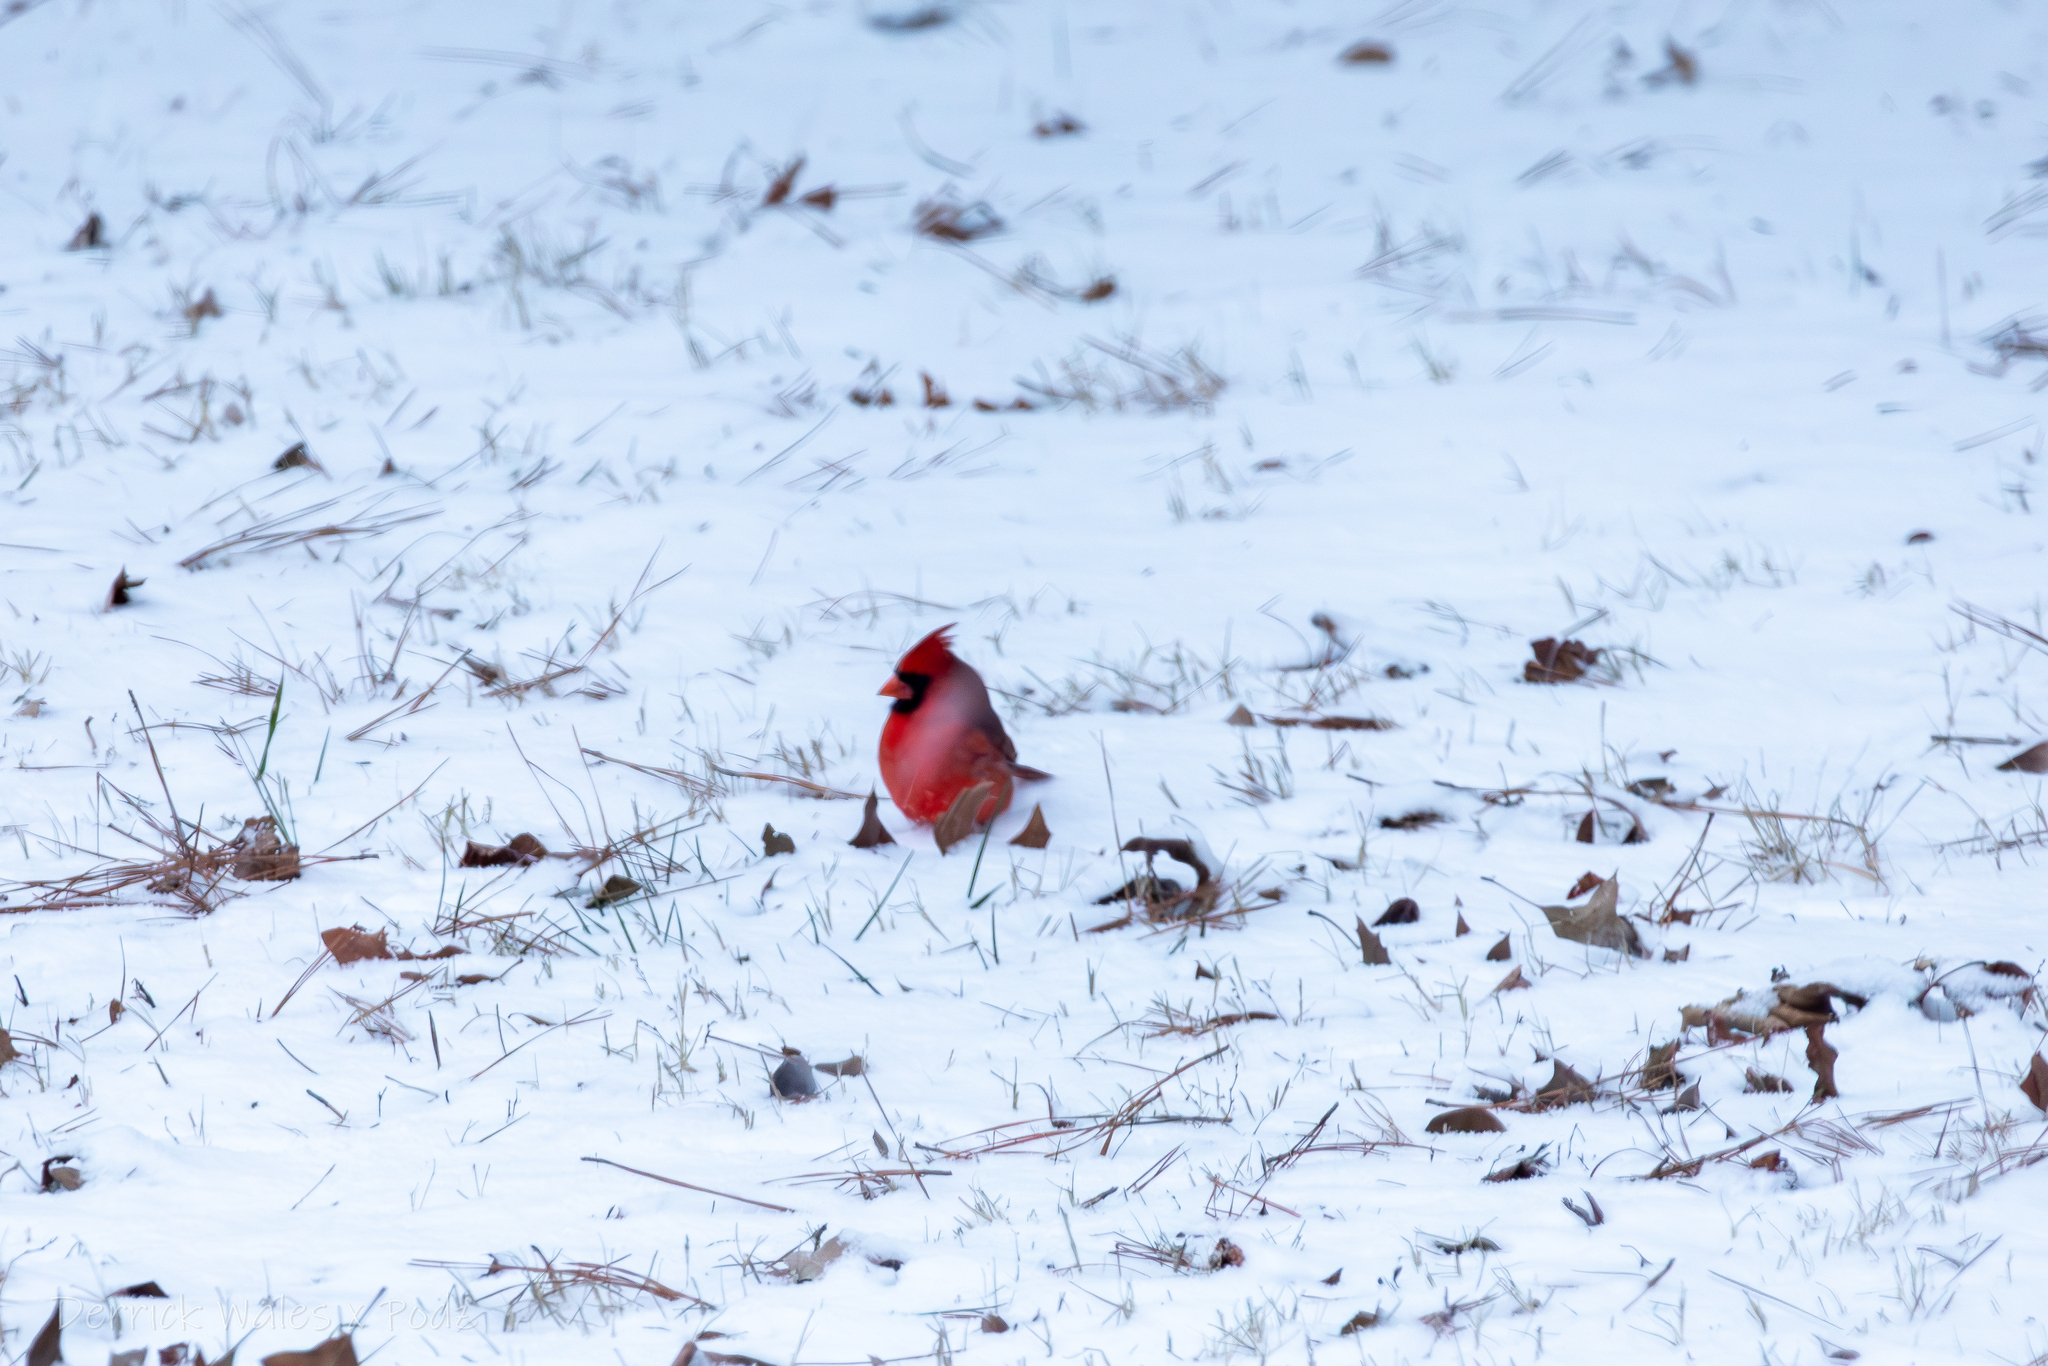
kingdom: Animalia
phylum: Chordata
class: Aves
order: Passeriformes
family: Cardinalidae
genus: Cardinalis
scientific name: Cardinalis cardinalis
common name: Northern cardinal
